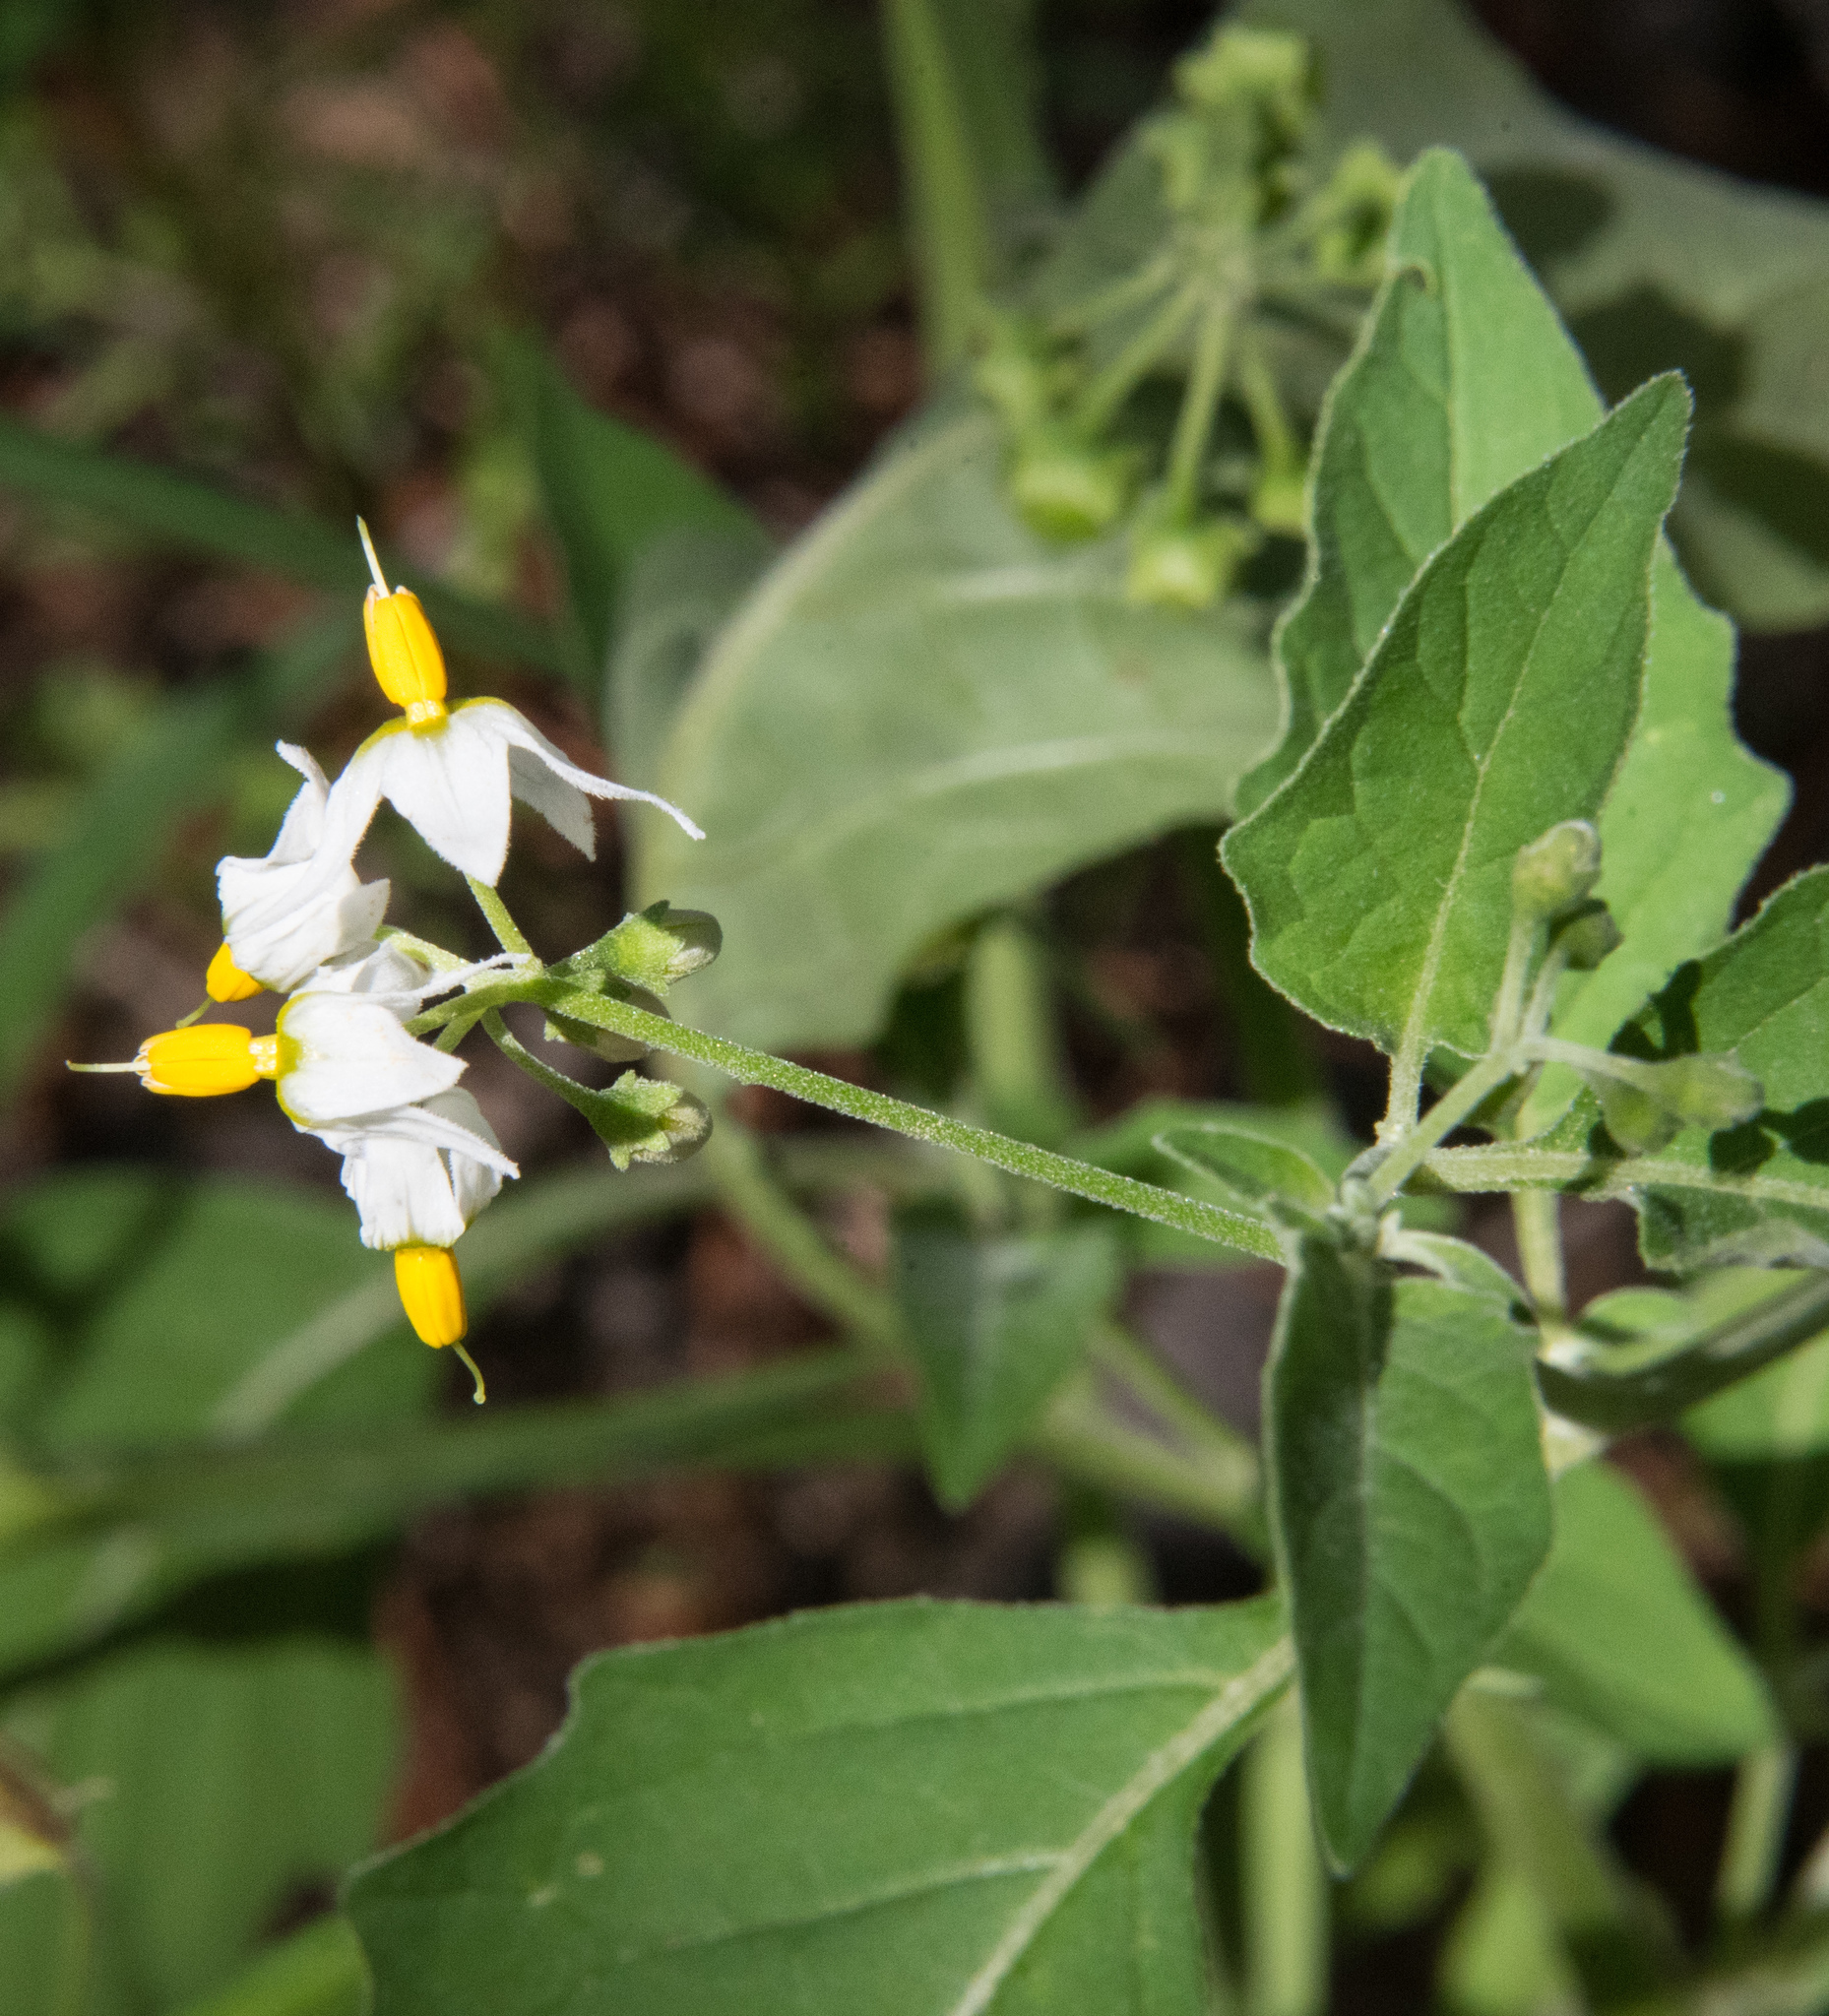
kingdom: Plantae
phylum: Tracheophyta
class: Magnoliopsida
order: Solanales
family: Solanaceae
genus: Solanum
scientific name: Solanum douglasii
